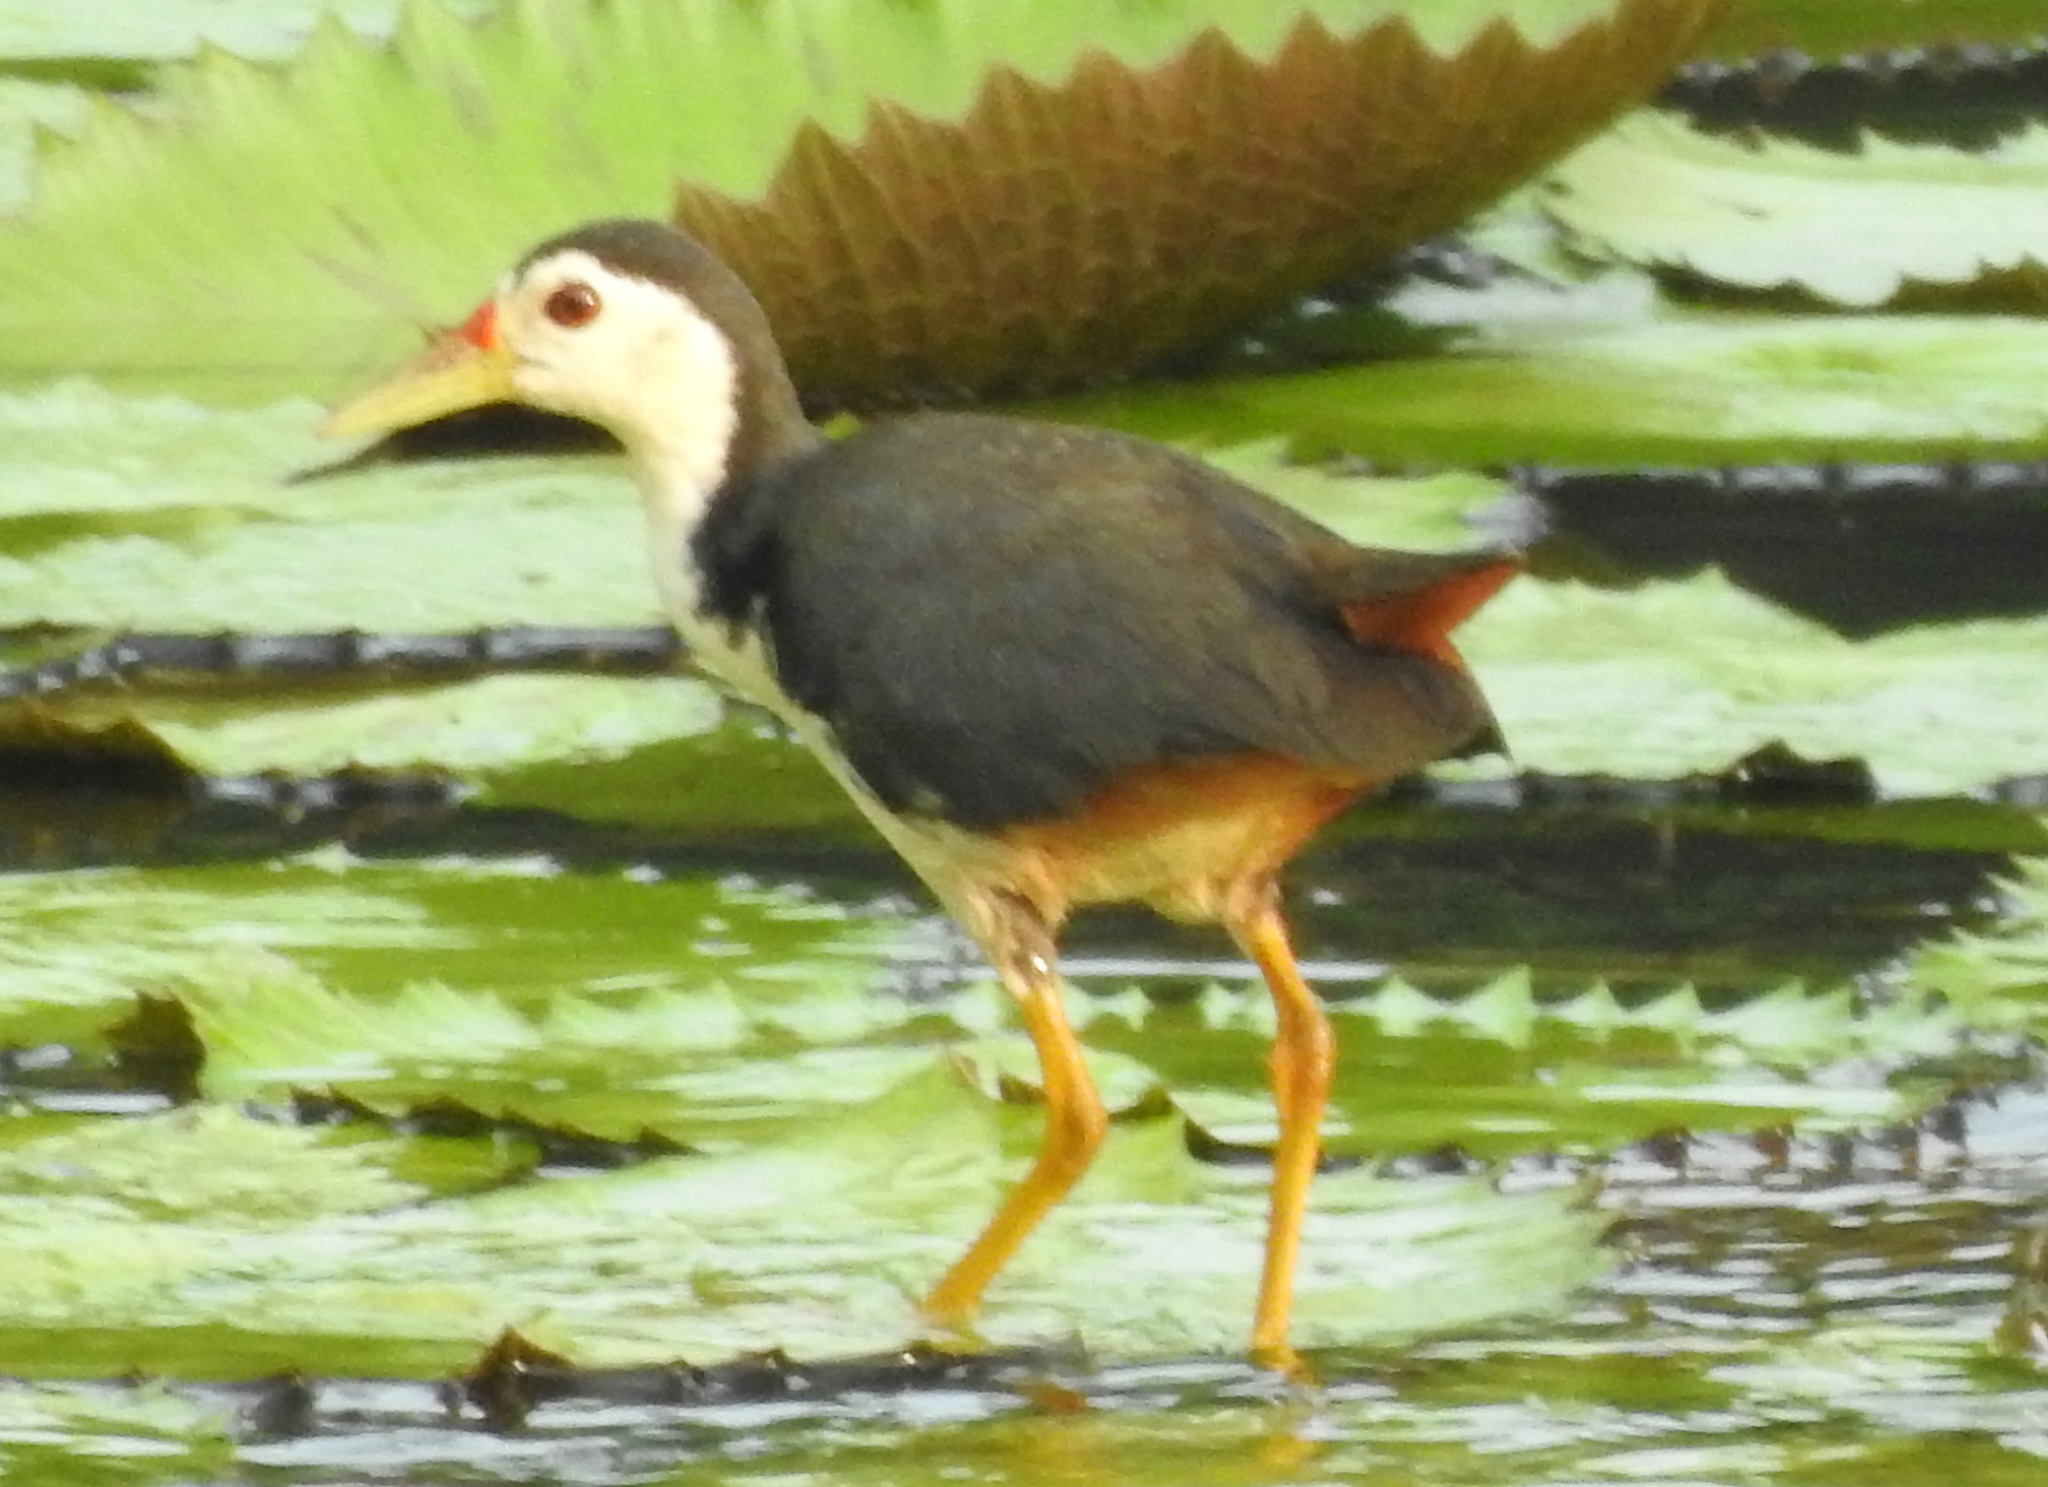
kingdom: Animalia
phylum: Chordata
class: Aves
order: Gruiformes
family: Rallidae
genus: Amaurornis
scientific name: Amaurornis phoenicurus
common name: White-breasted waterhen
